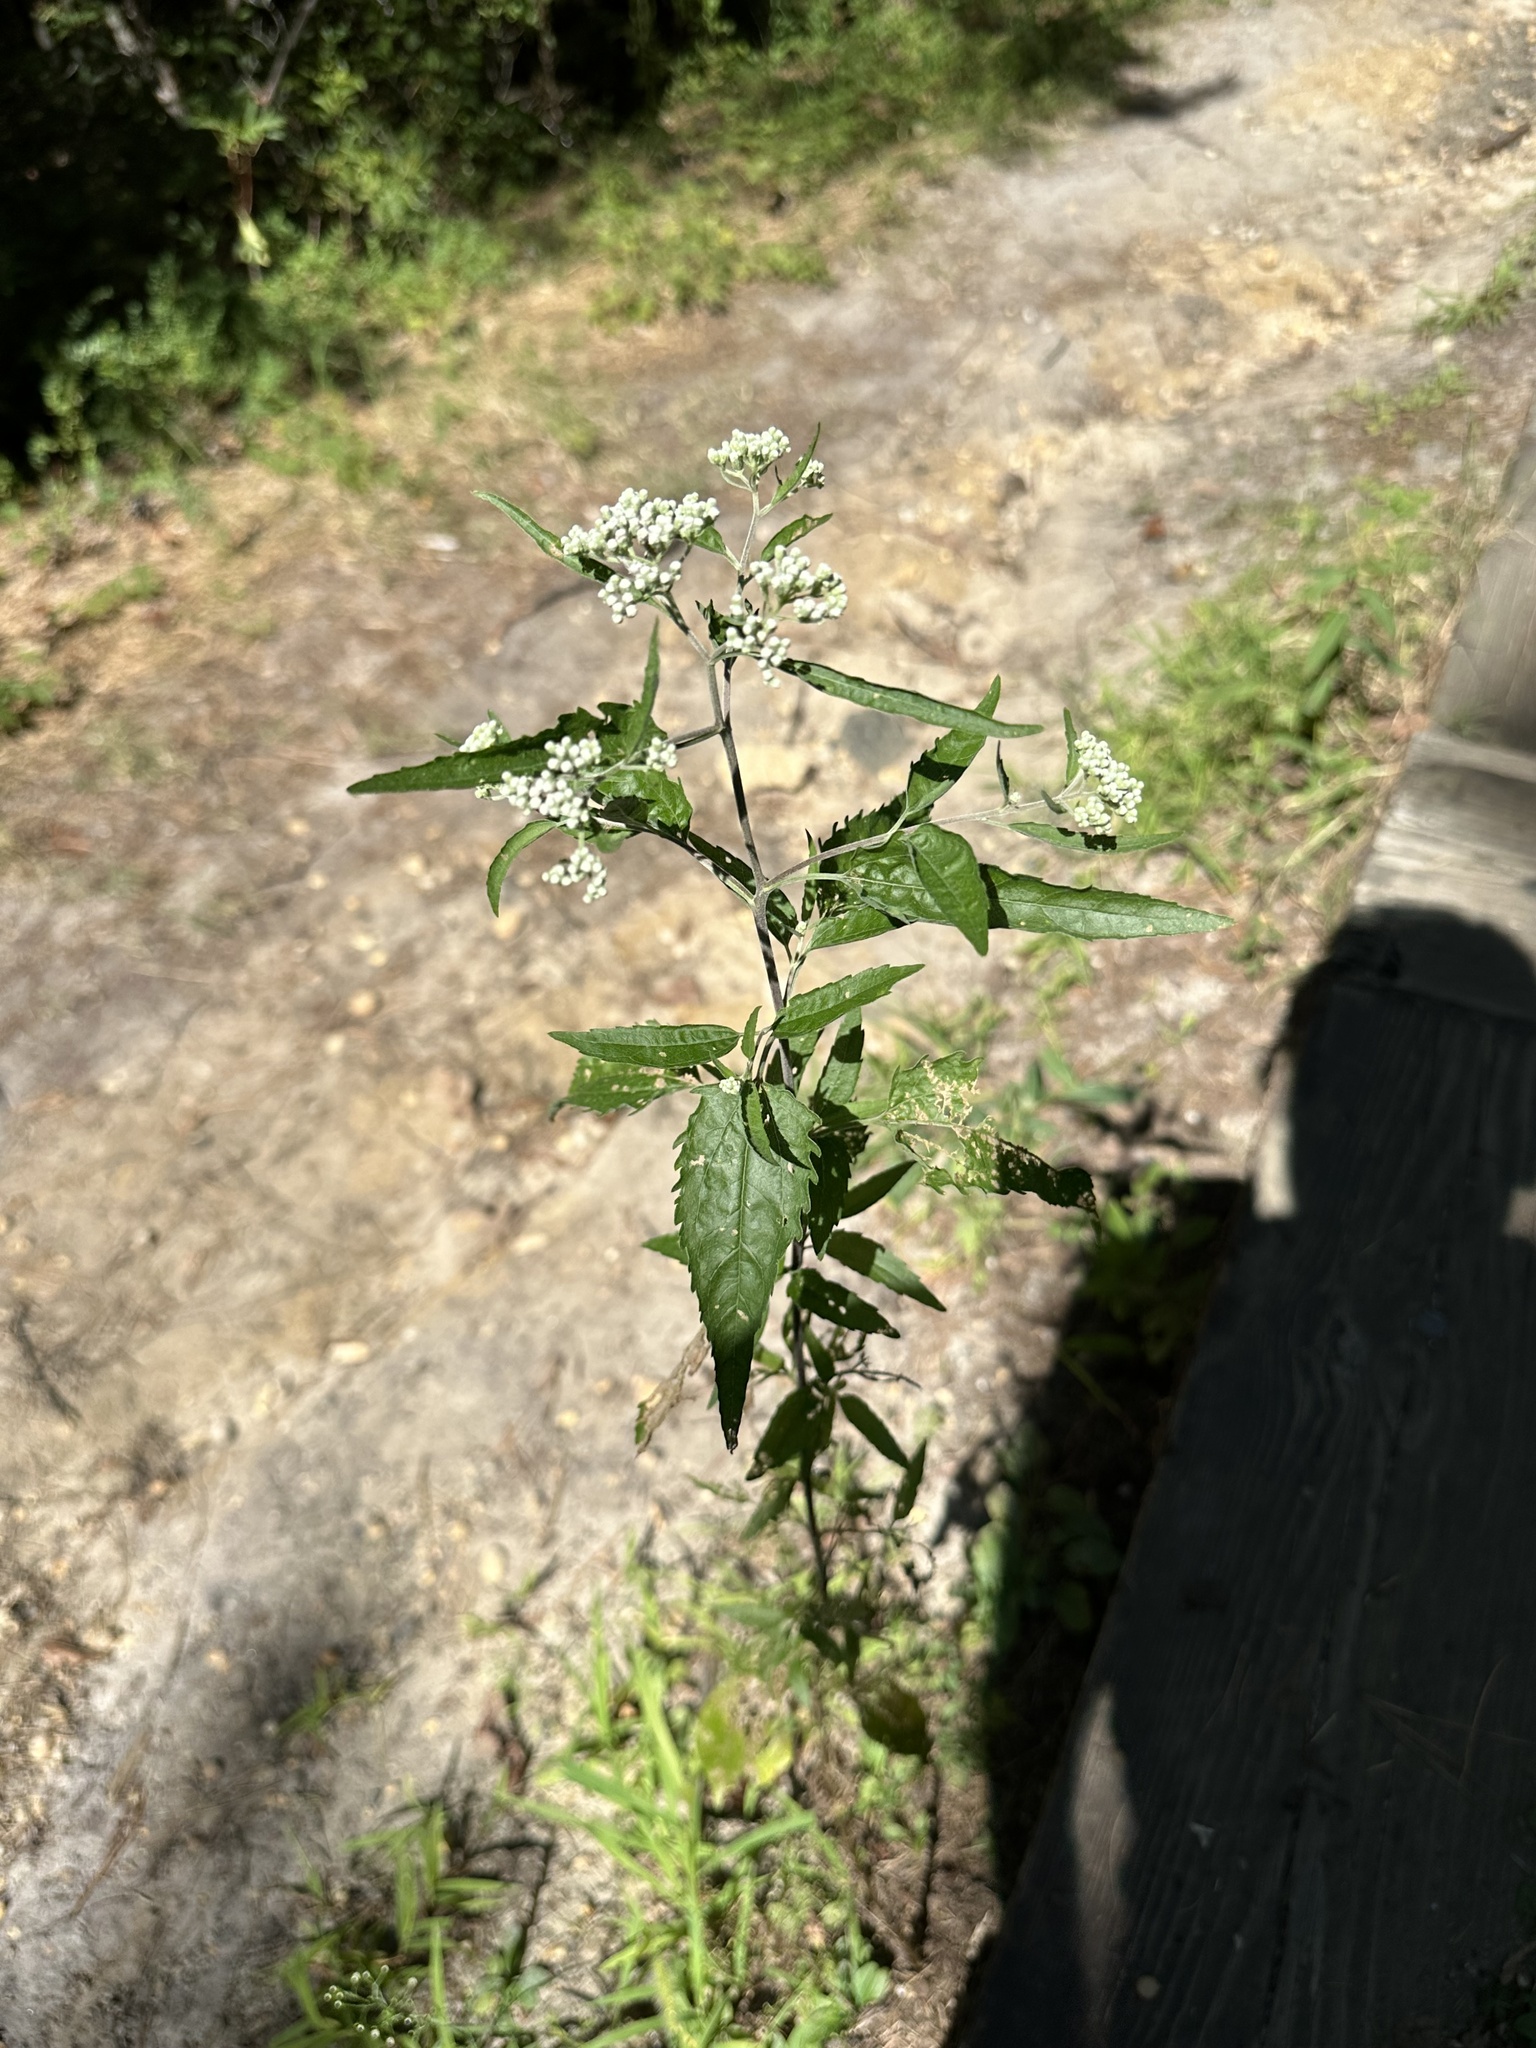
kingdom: Plantae
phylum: Tracheophyta
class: Magnoliopsida
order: Asterales
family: Asteraceae
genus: Eupatorium
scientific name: Eupatorium serotinum
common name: Late boneset
